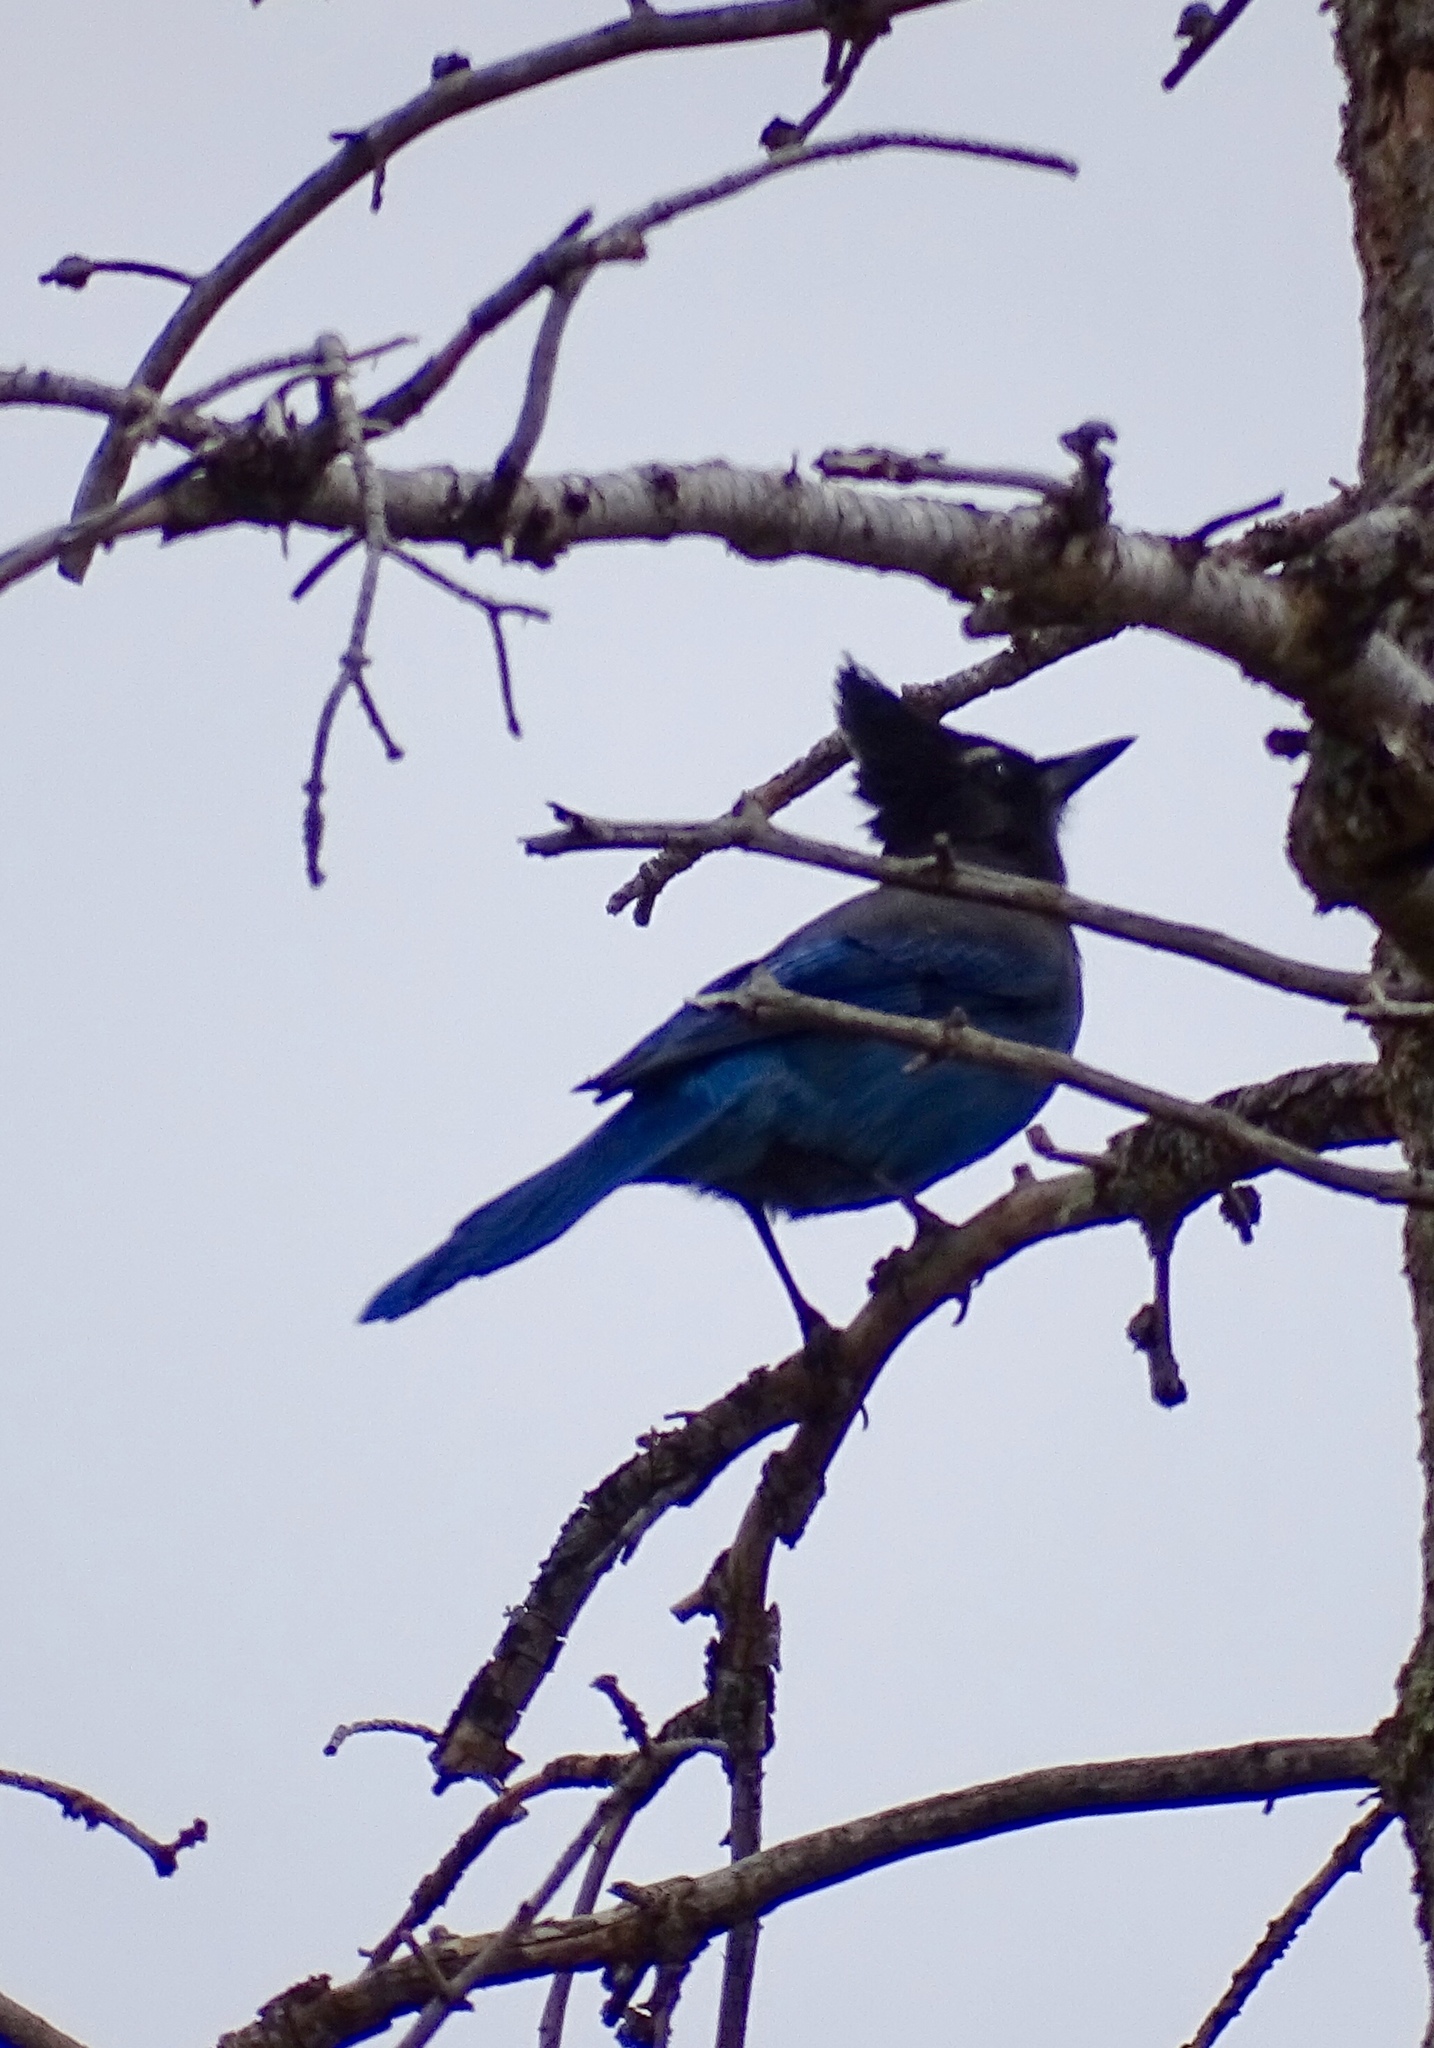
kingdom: Animalia
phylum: Chordata
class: Aves
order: Passeriformes
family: Corvidae
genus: Cyanocitta
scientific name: Cyanocitta stelleri
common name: Steller's jay
